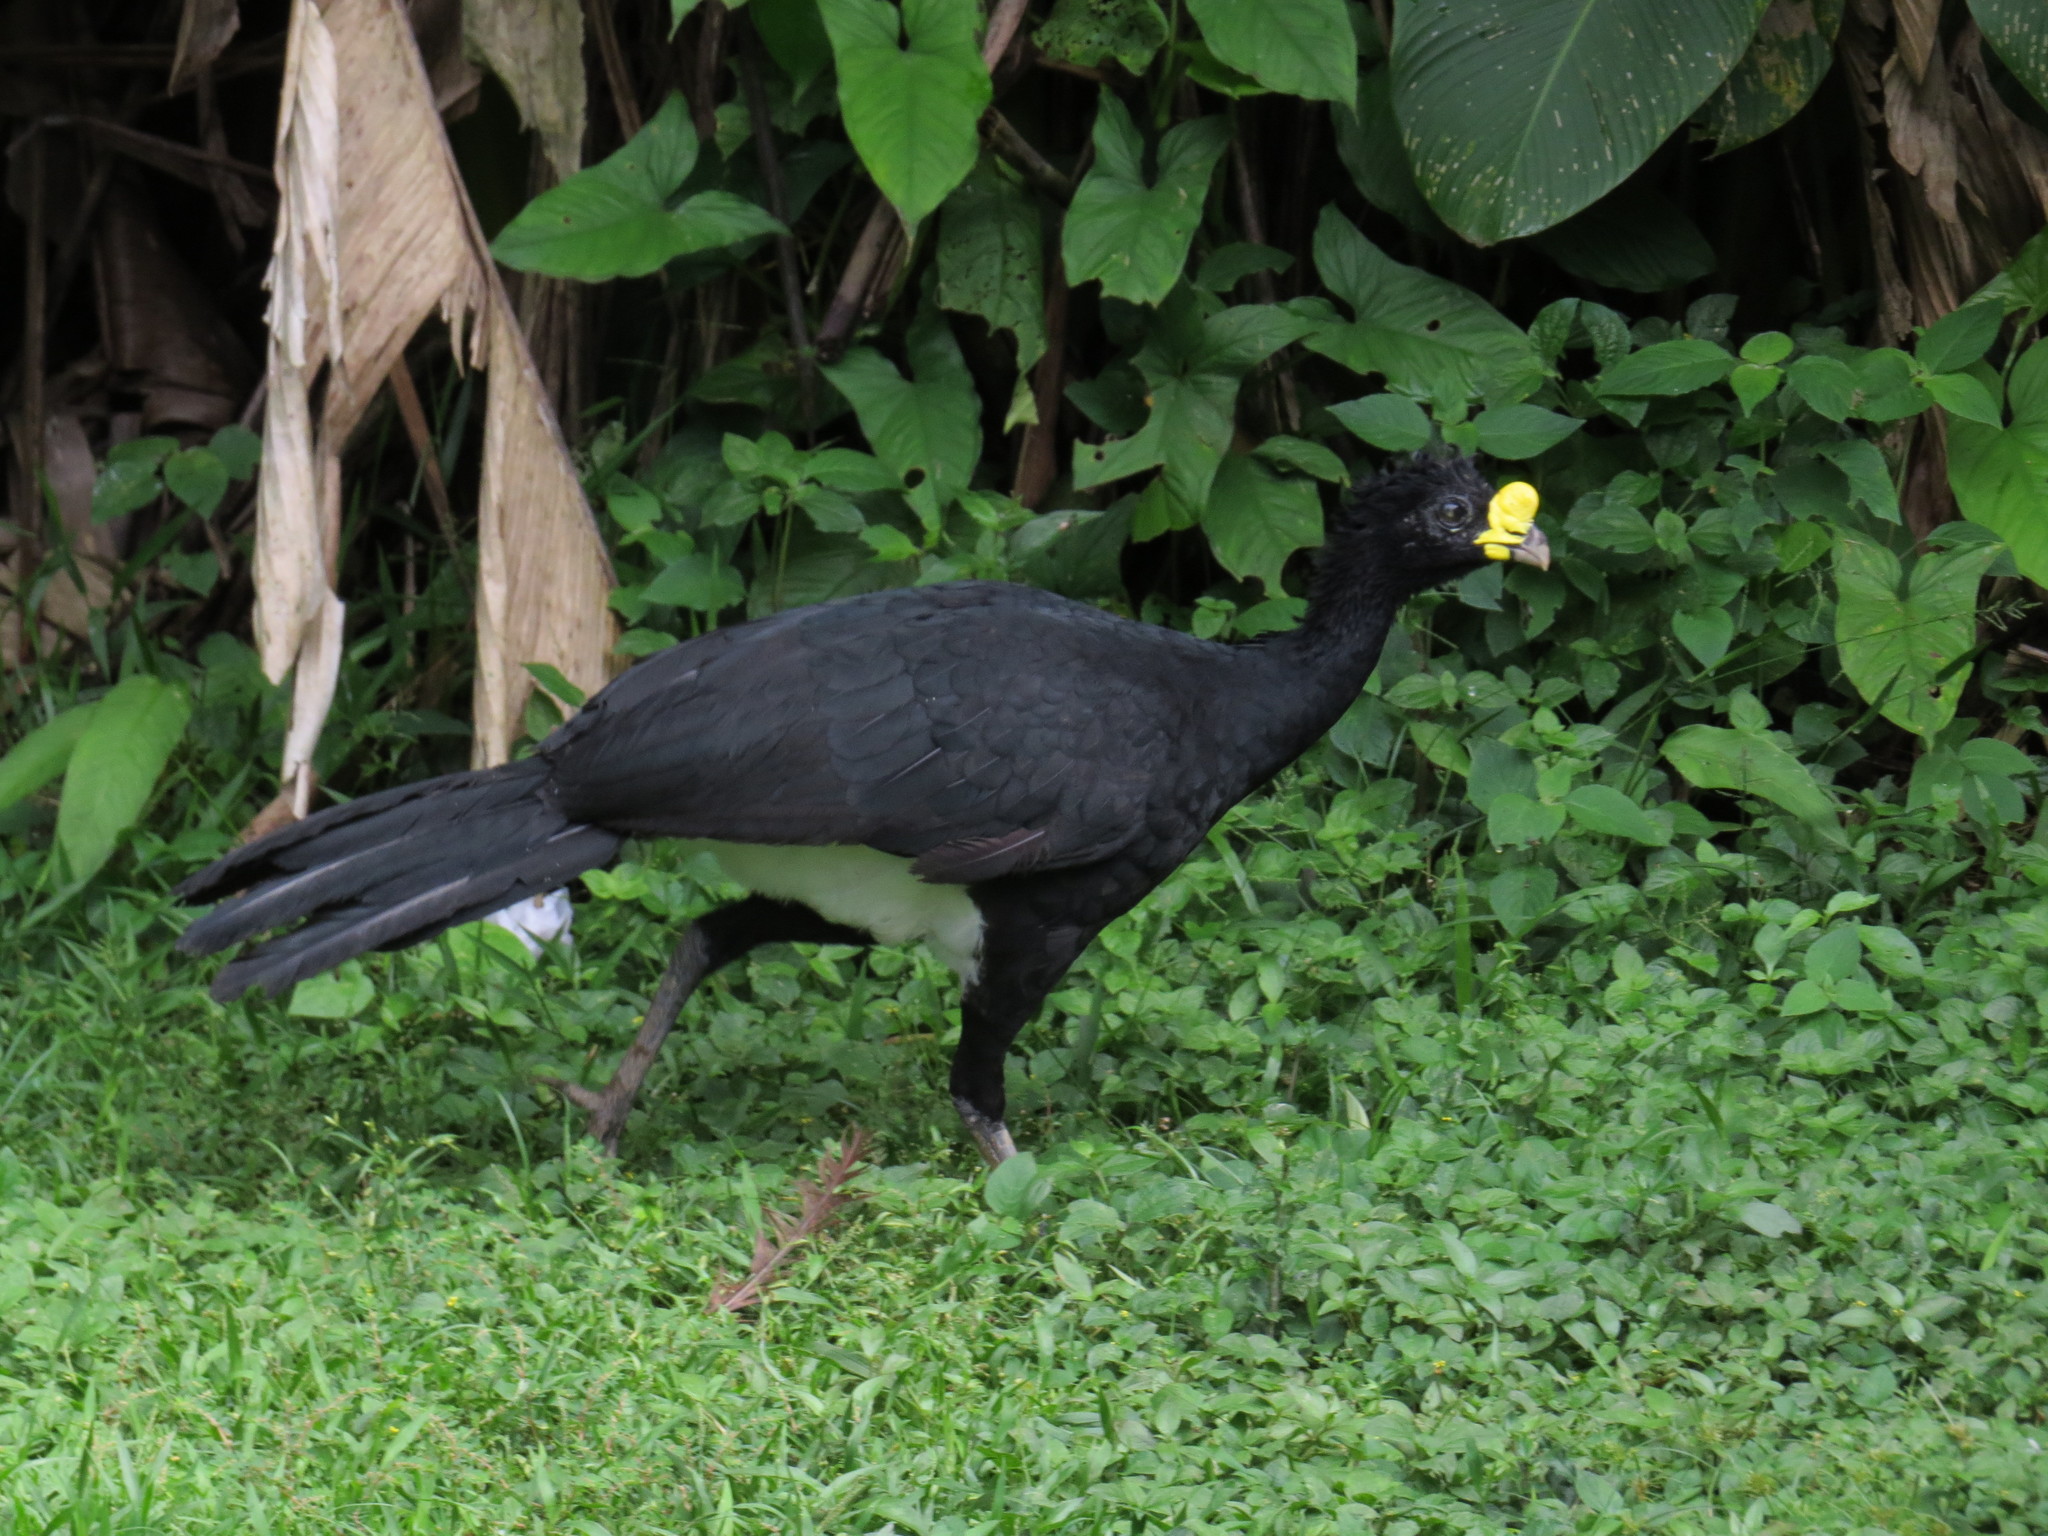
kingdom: Animalia
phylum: Chordata
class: Aves
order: Galliformes
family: Cracidae
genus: Crax
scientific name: Crax rubra
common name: Great curassow
